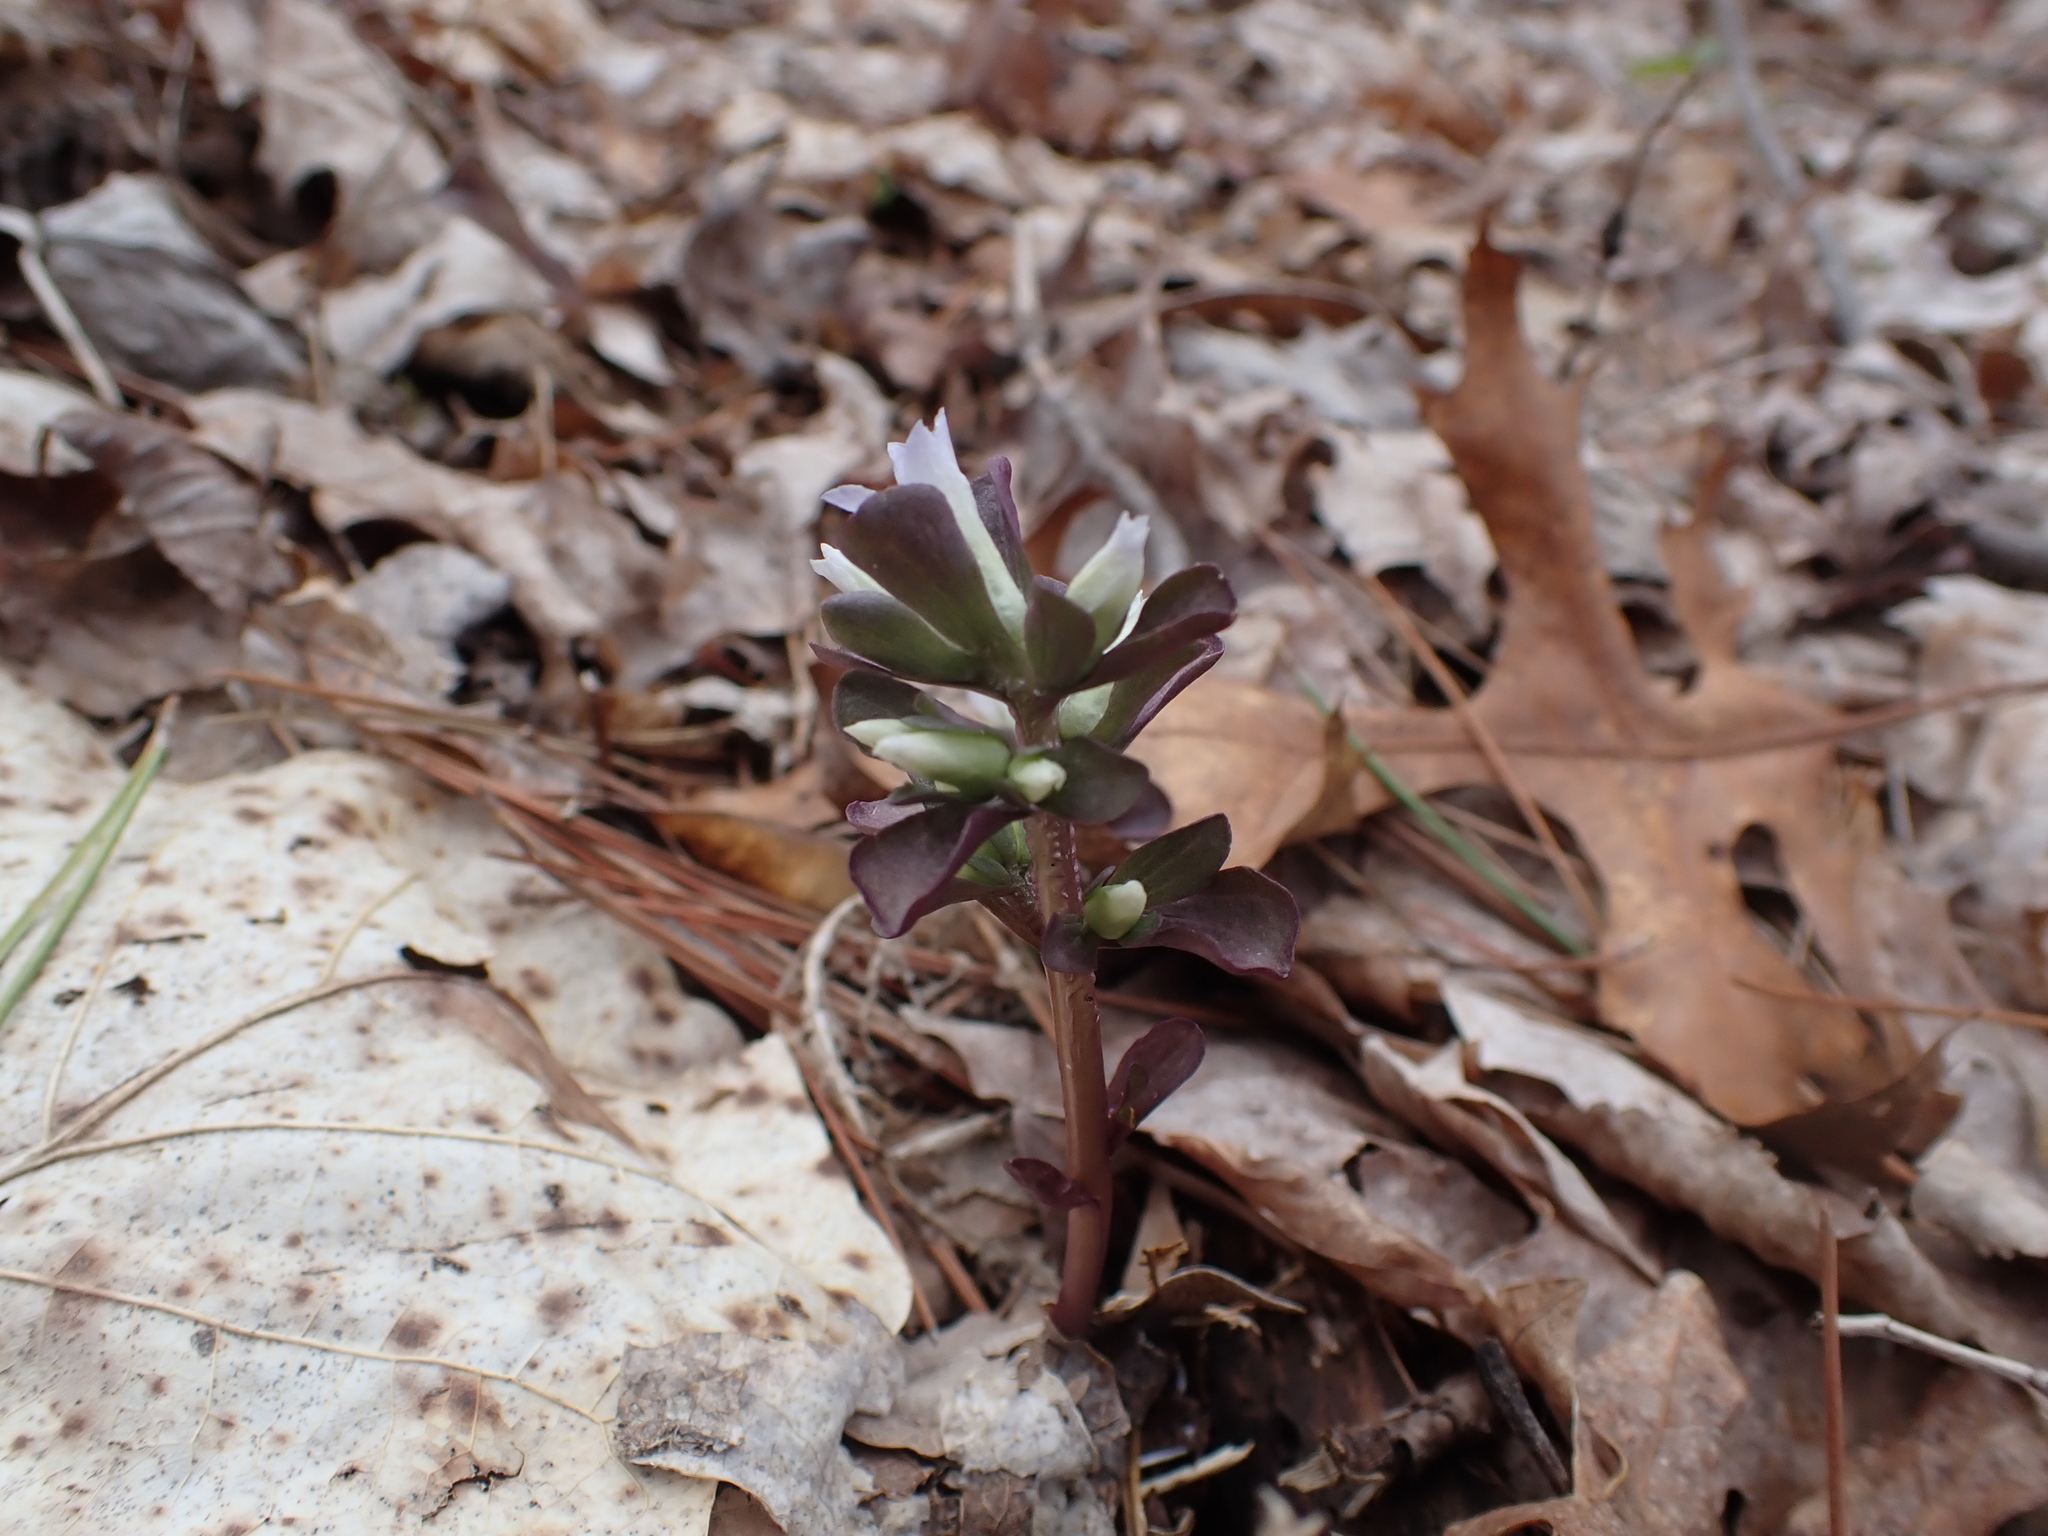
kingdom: Plantae
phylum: Tracheophyta
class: Magnoliopsida
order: Gentianales
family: Gentianaceae
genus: Obolaria
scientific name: Obolaria virginica
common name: Pennywort
